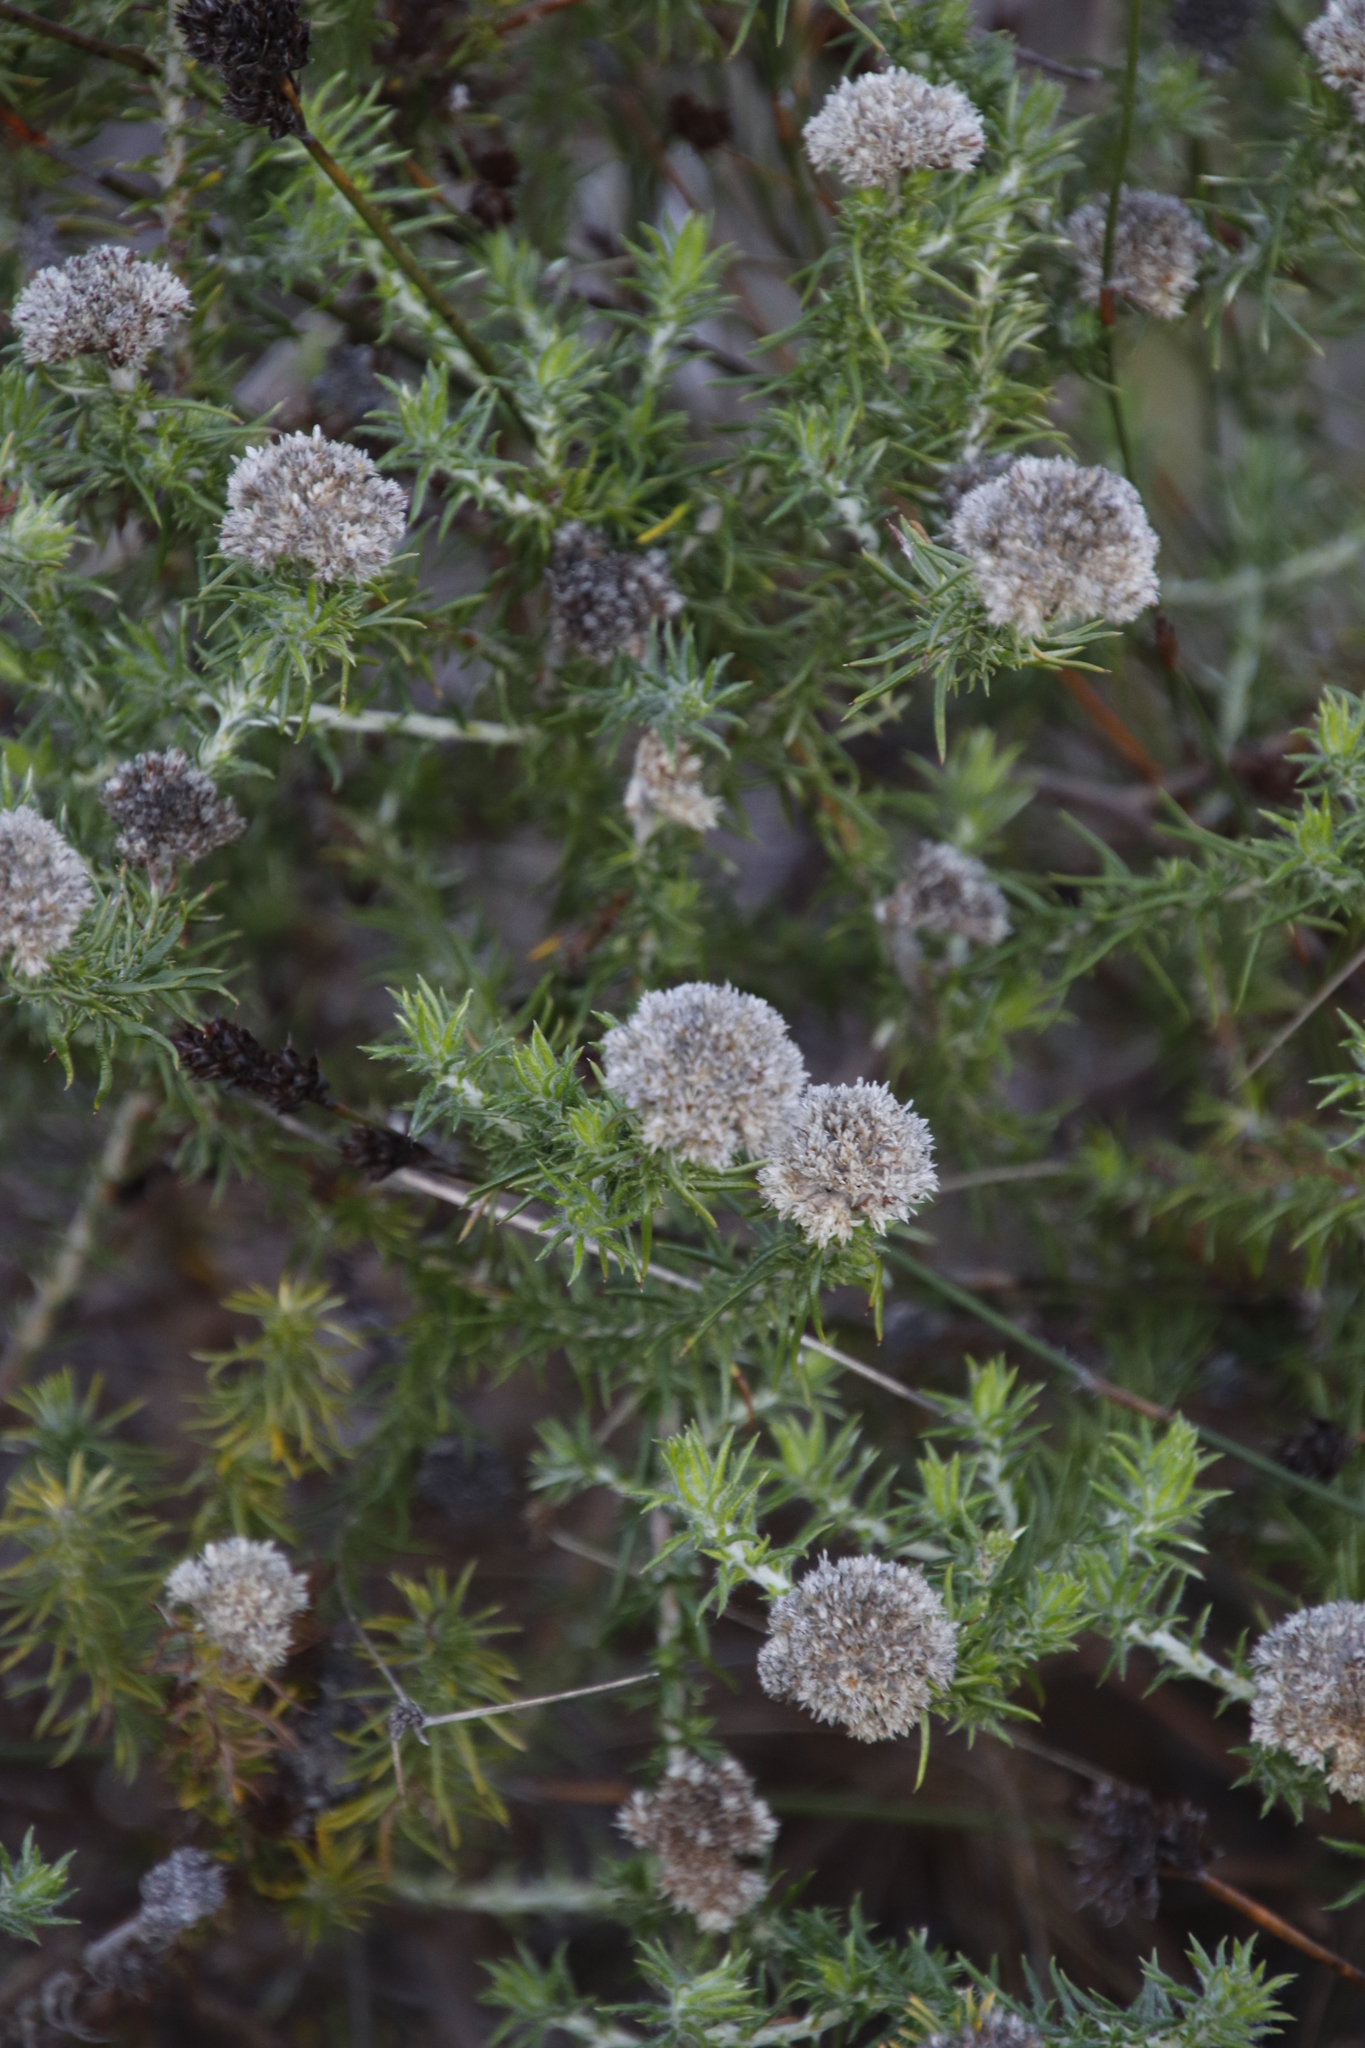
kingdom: Plantae
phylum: Tracheophyta
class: Magnoliopsida
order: Asterales
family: Asteraceae
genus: Metalasia
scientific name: Metalasia pulchella
